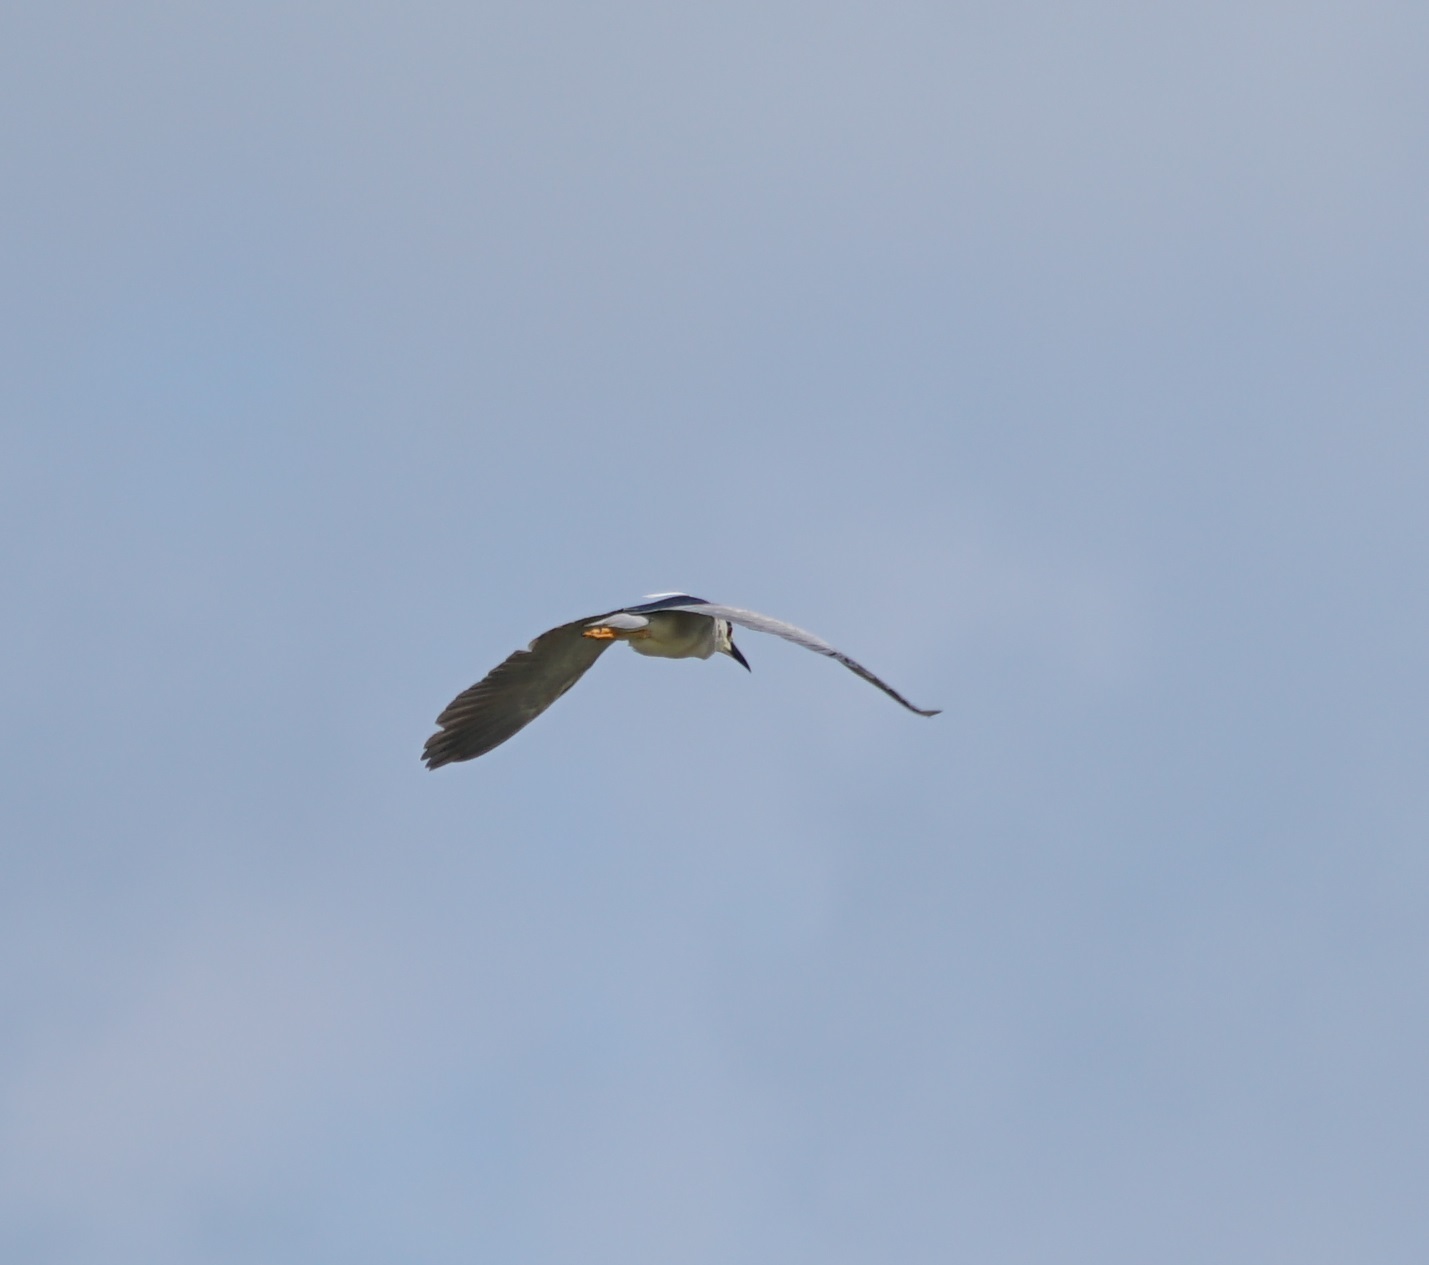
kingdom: Animalia
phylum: Chordata
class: Aves
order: Pelecaniformes
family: Ardeidae
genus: Nycticorax
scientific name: Nycticorax nycticorax
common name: Black-crowned night heron
